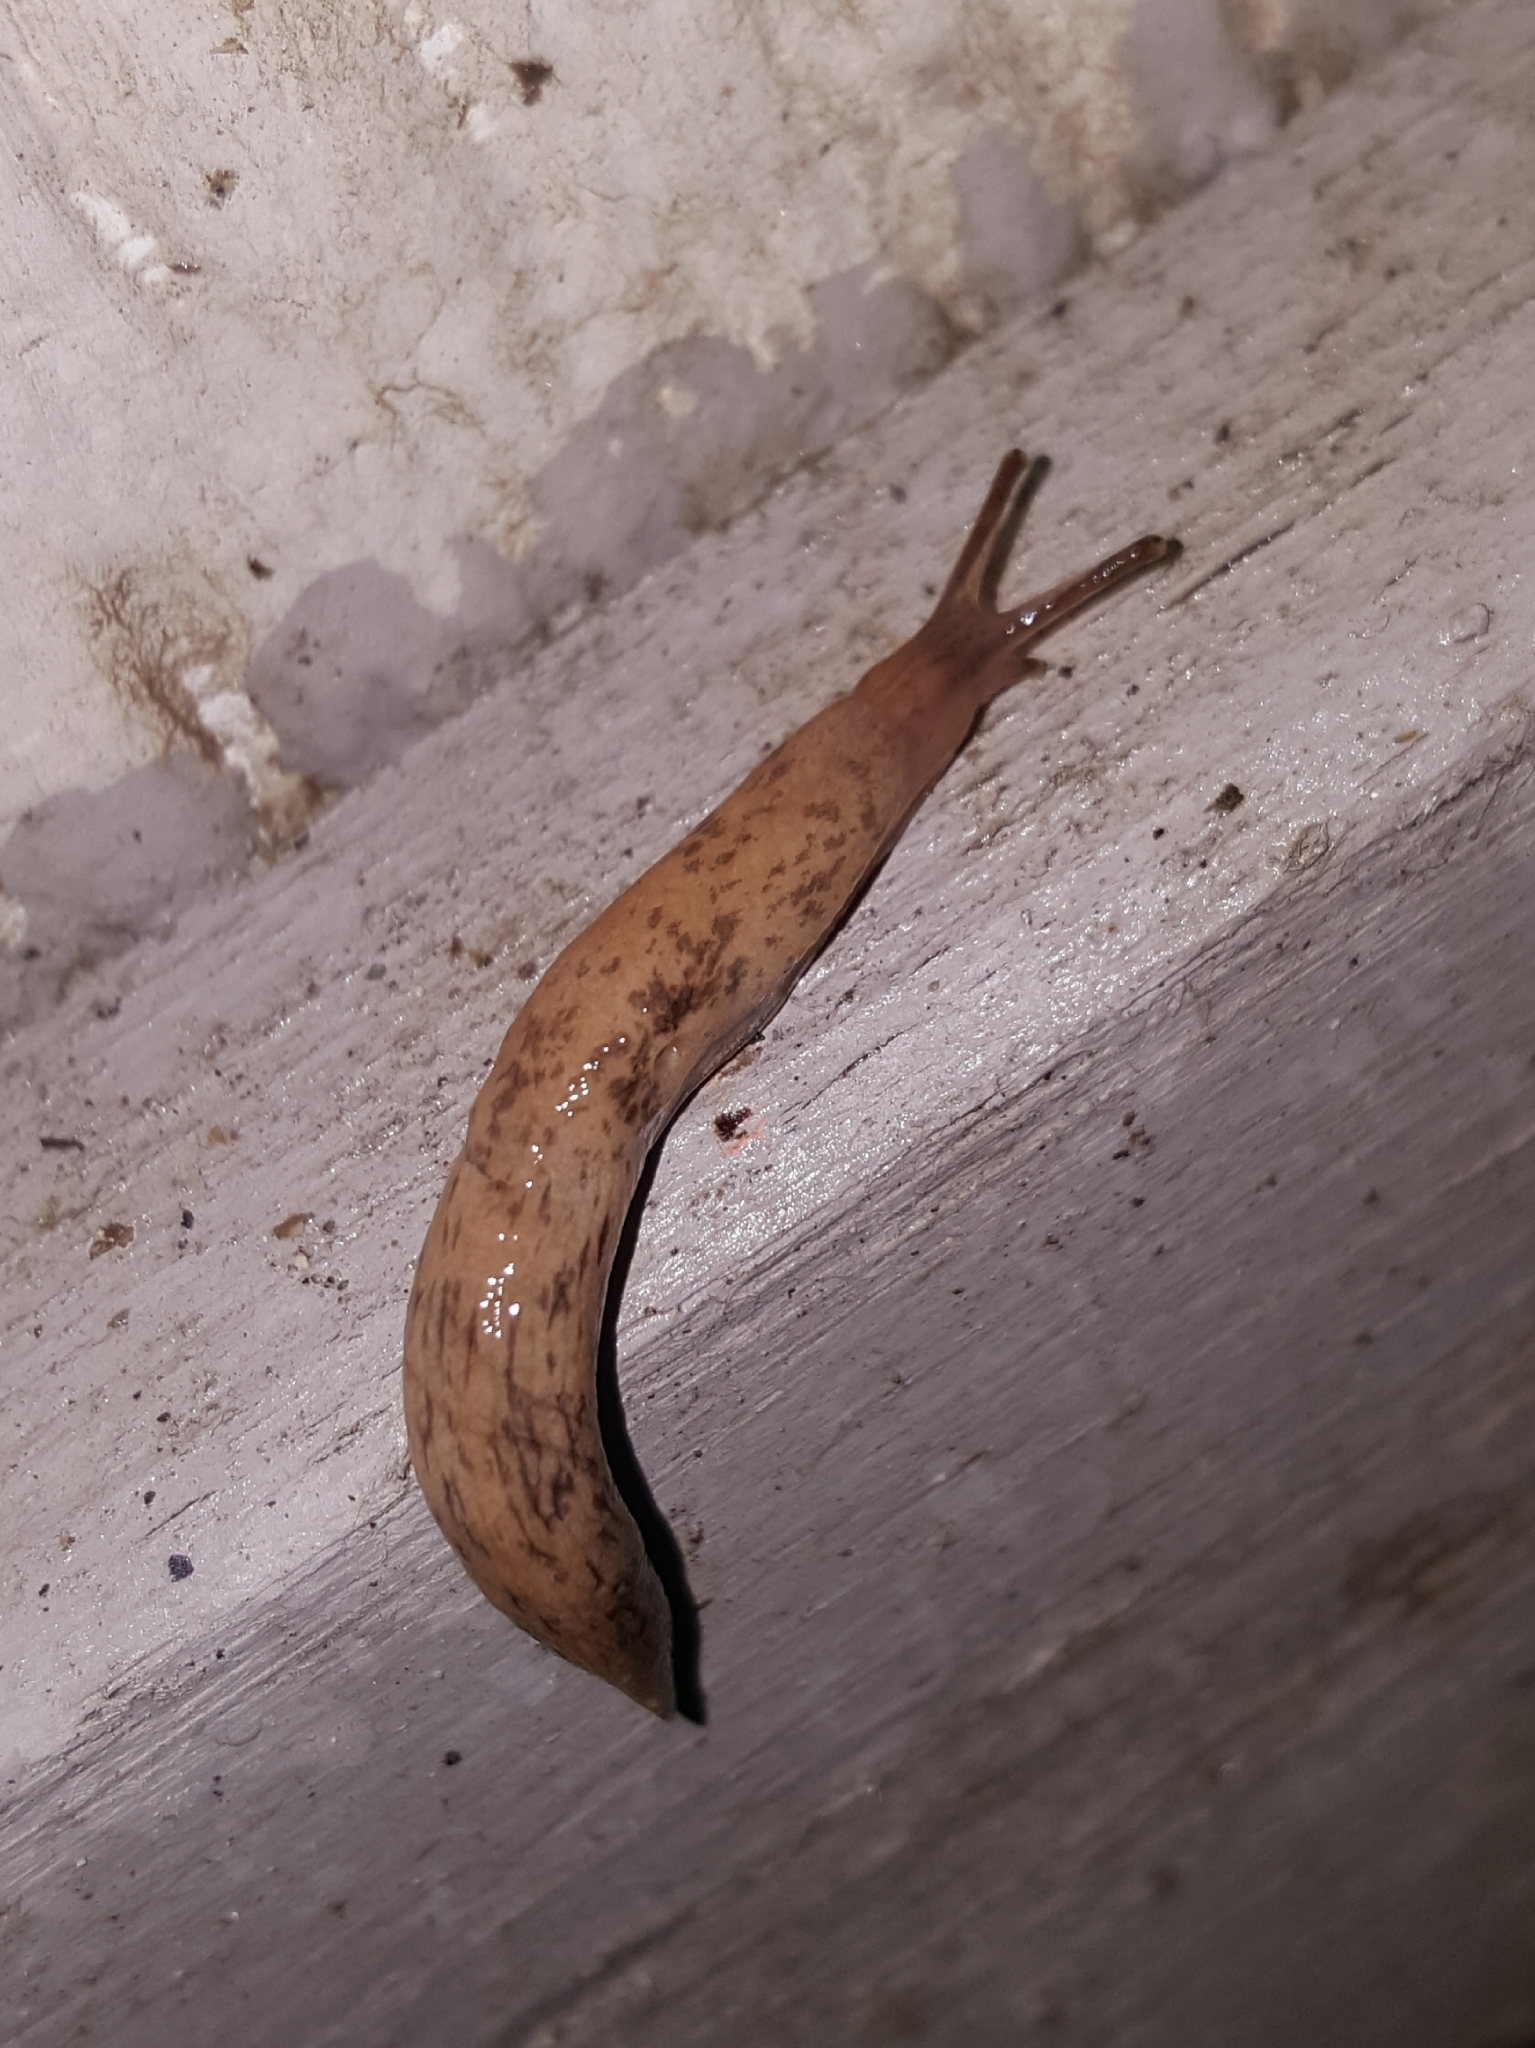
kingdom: Animalia
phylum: Mollusca
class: Gastropoda
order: Stylommatophora
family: Agriolimacidae
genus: Deroceras
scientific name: Deroceras reticulatum
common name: Gray field slug
